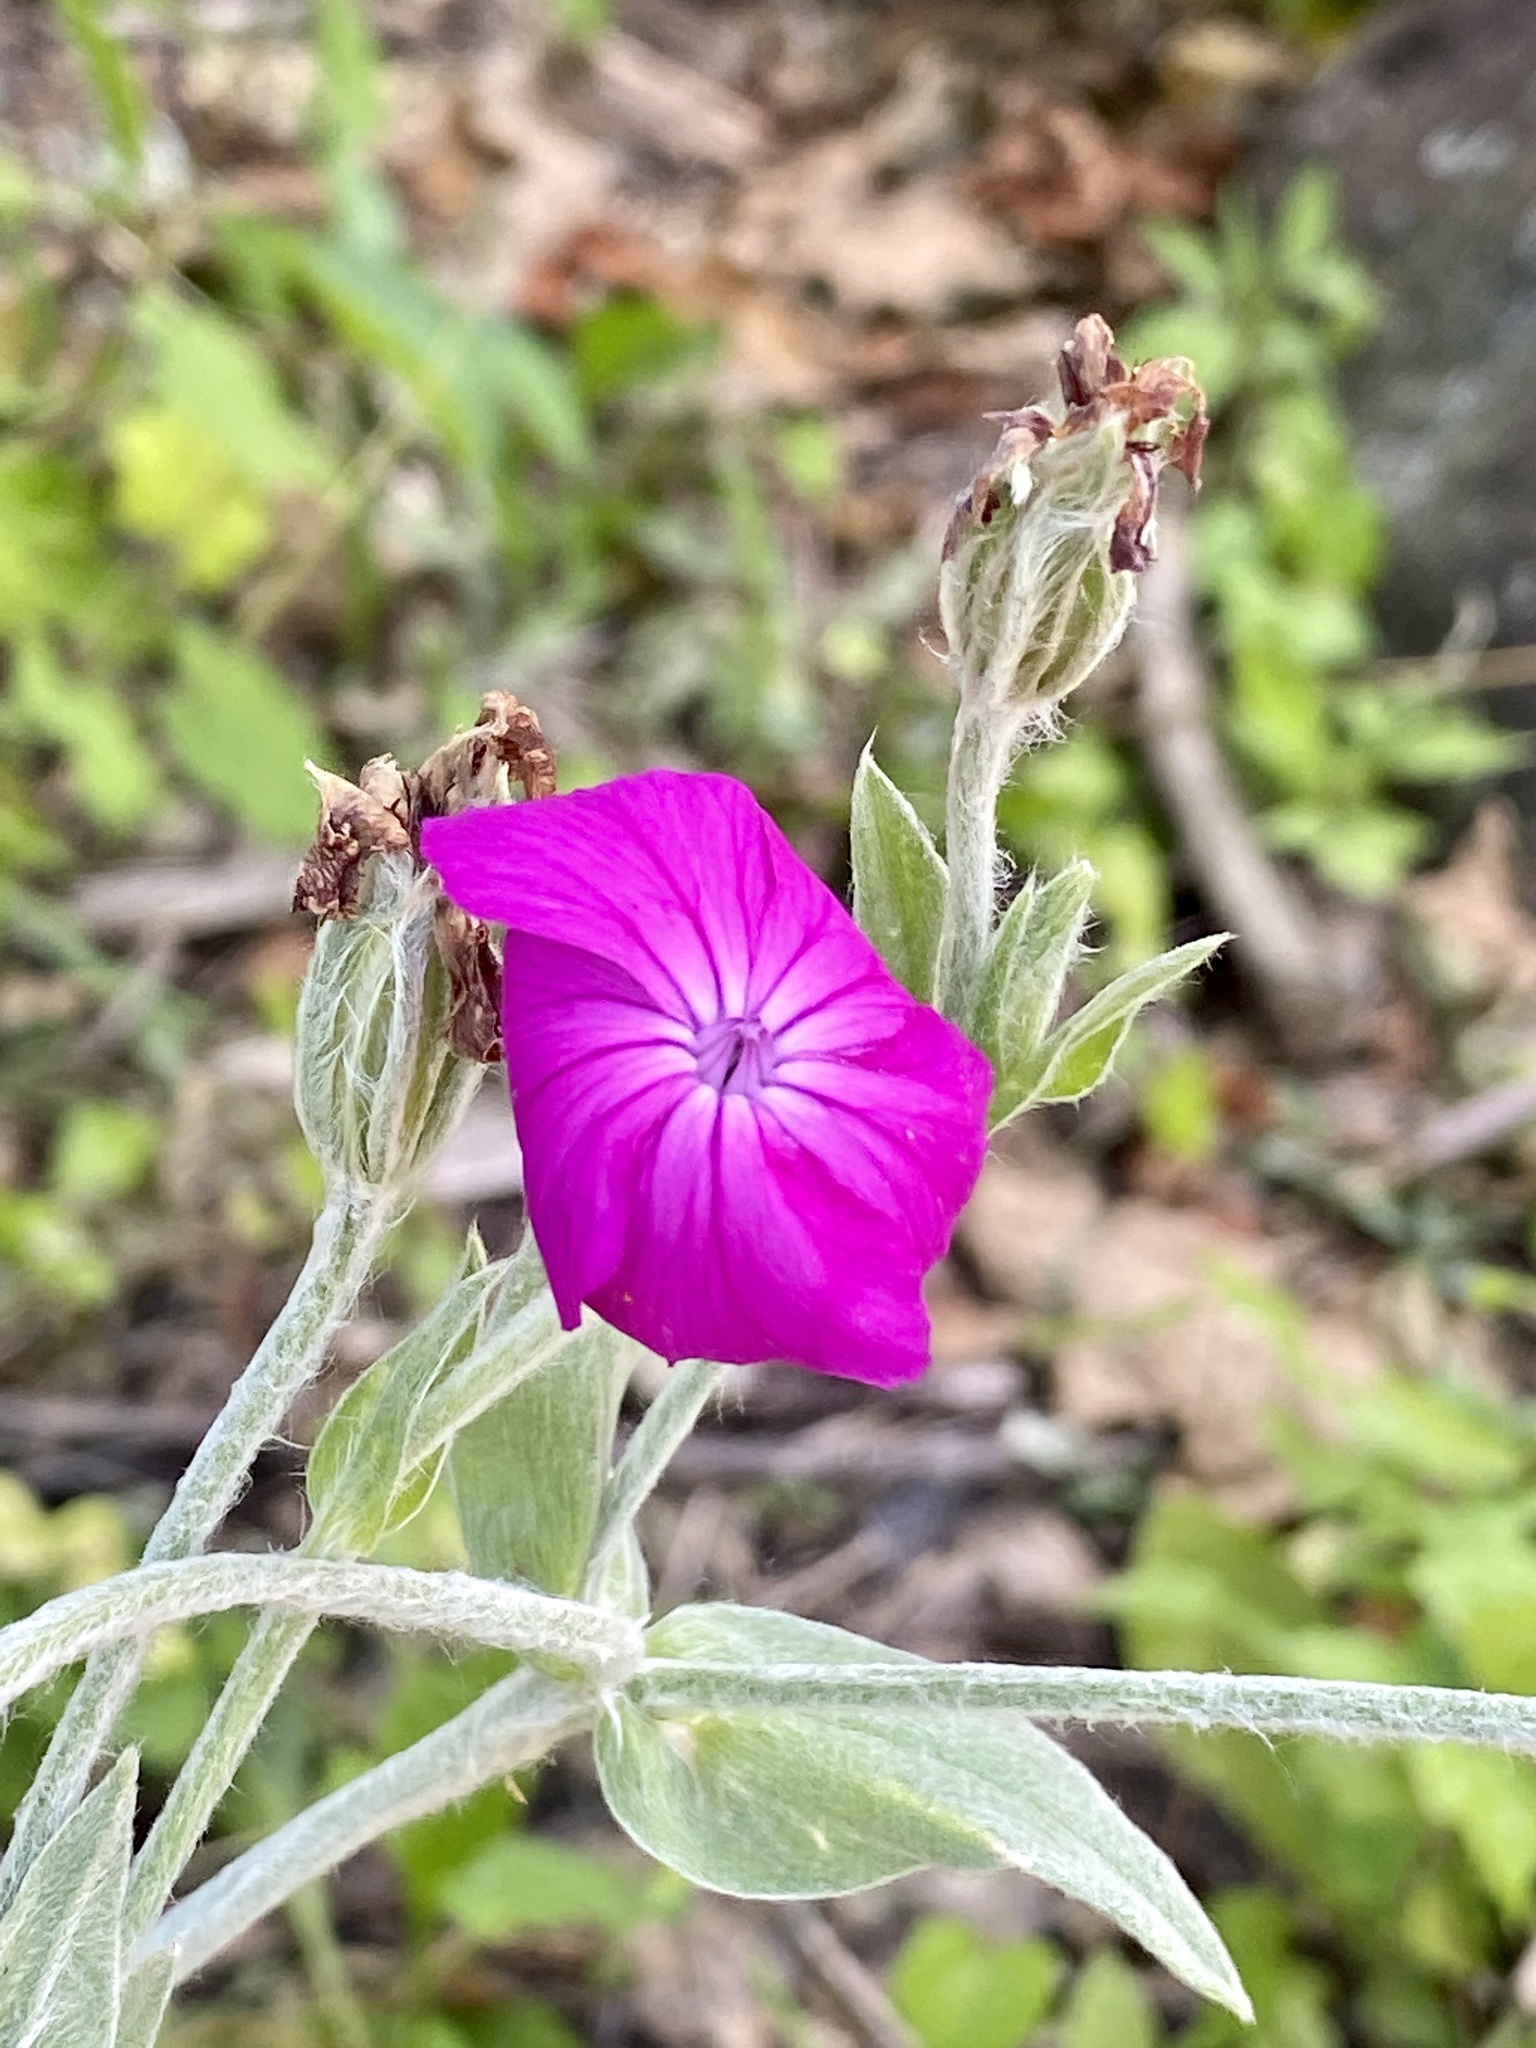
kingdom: Plantae
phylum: Tracheophyta
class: Magnoliopsida
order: Caryophyllales
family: Caryophyllaceae
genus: Silene
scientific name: Silene coronaria
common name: Rose campion
